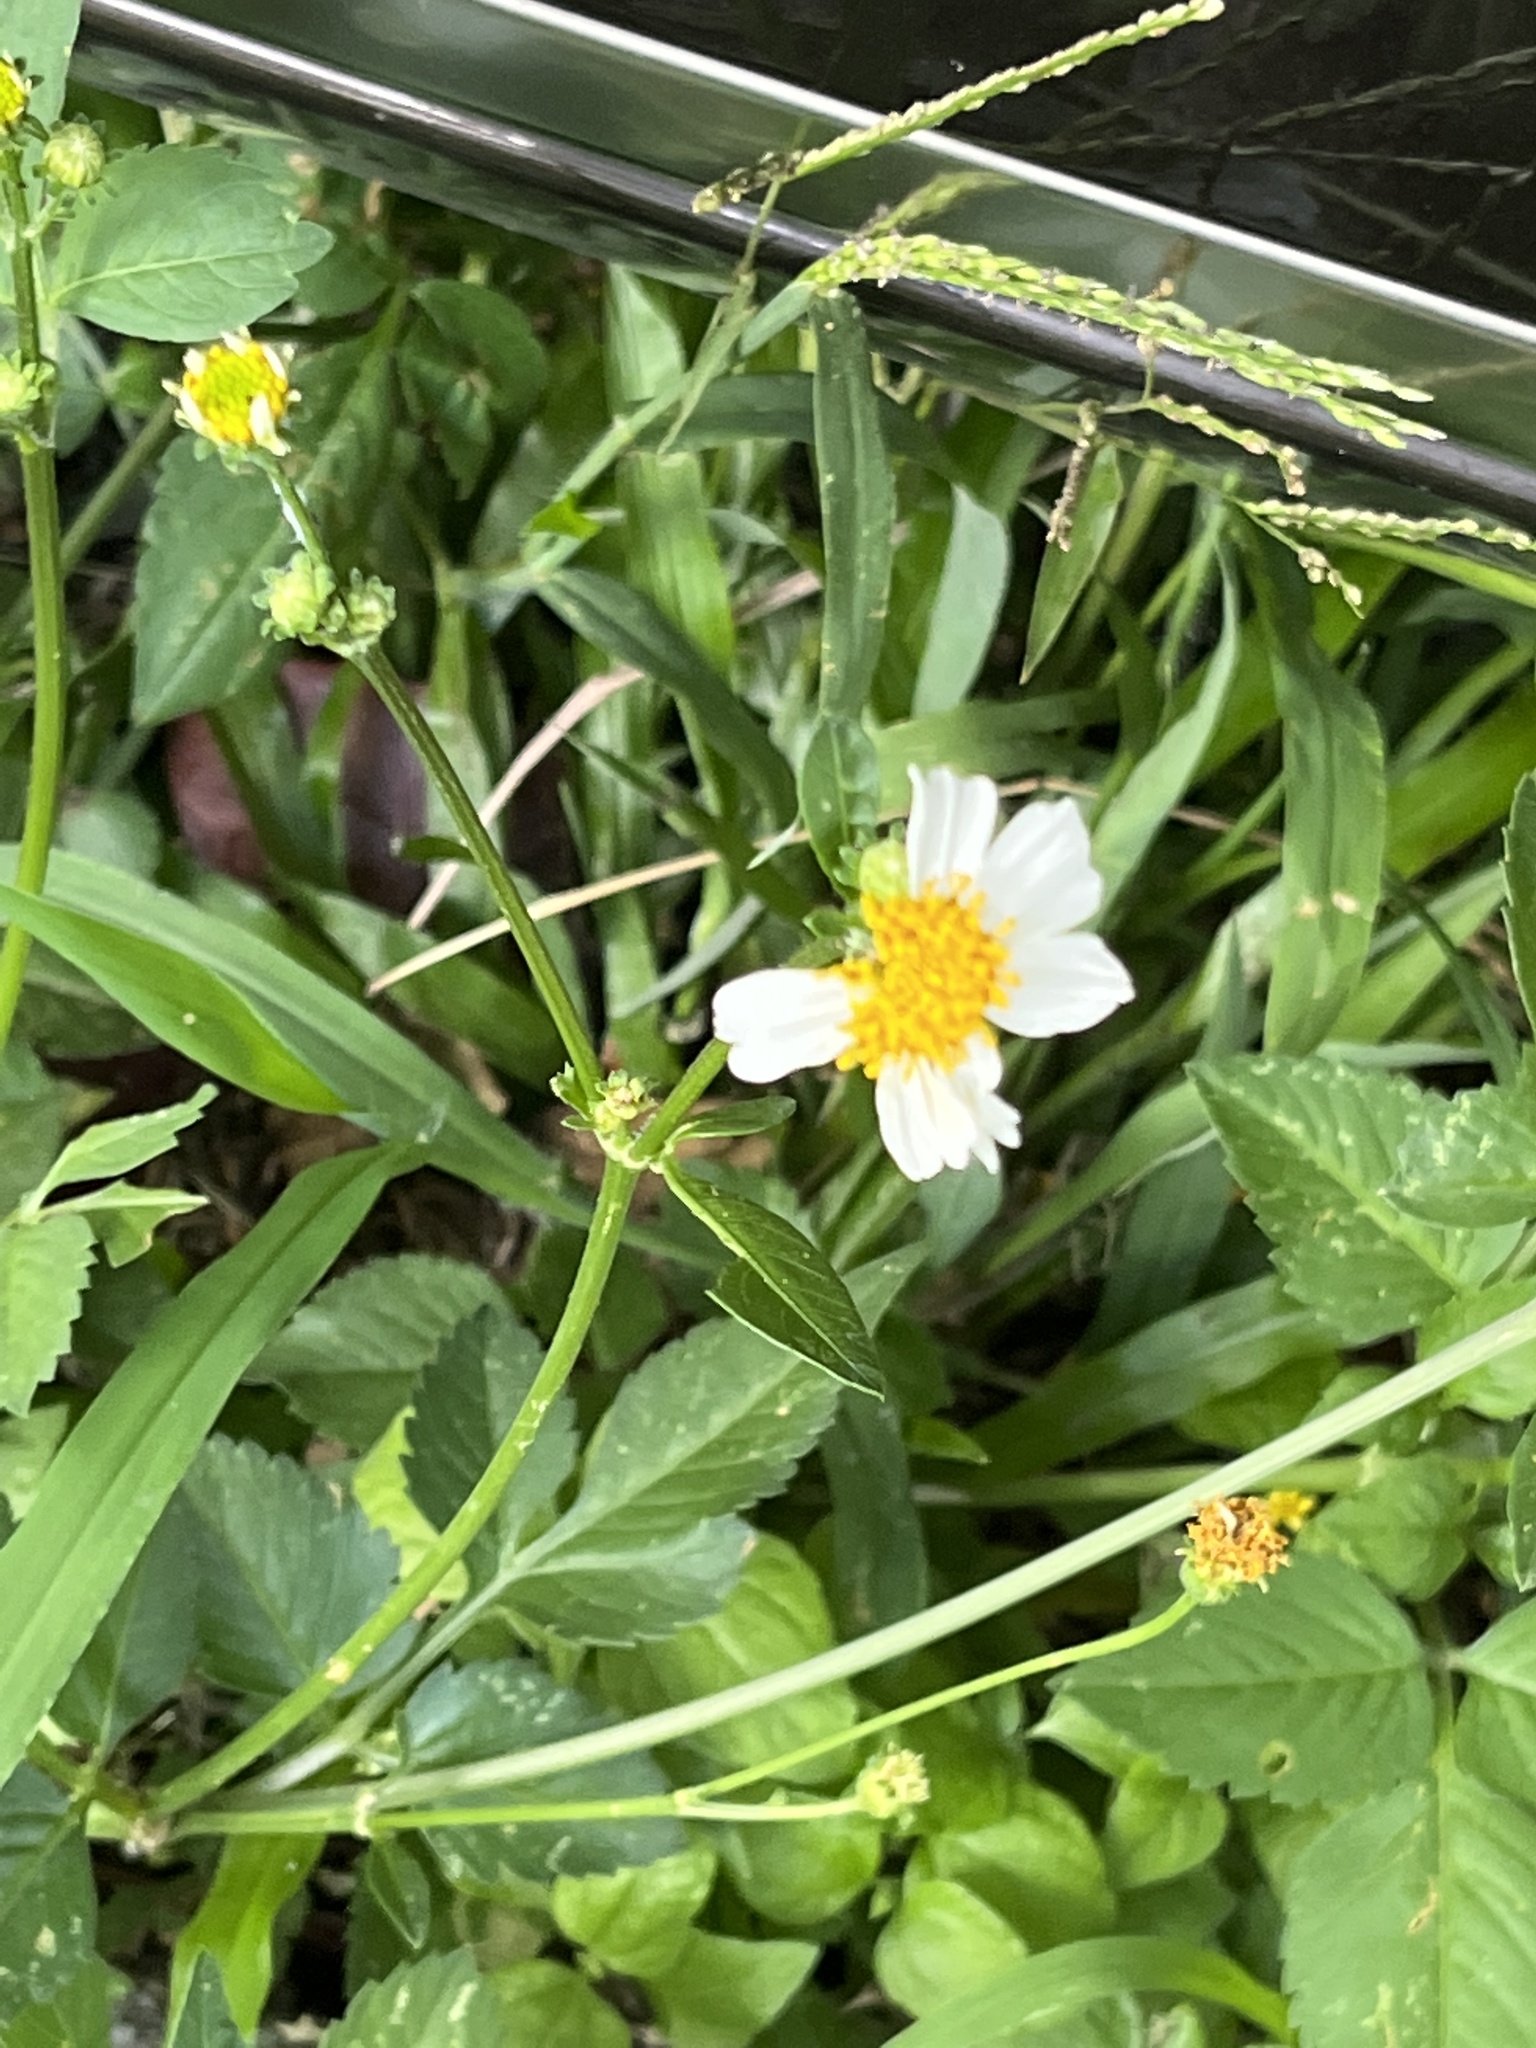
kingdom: Plantae
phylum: Tracheophyta
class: Magnoliopsida
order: Asterales
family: Asteraceae
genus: Bidens
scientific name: Bidens alba
